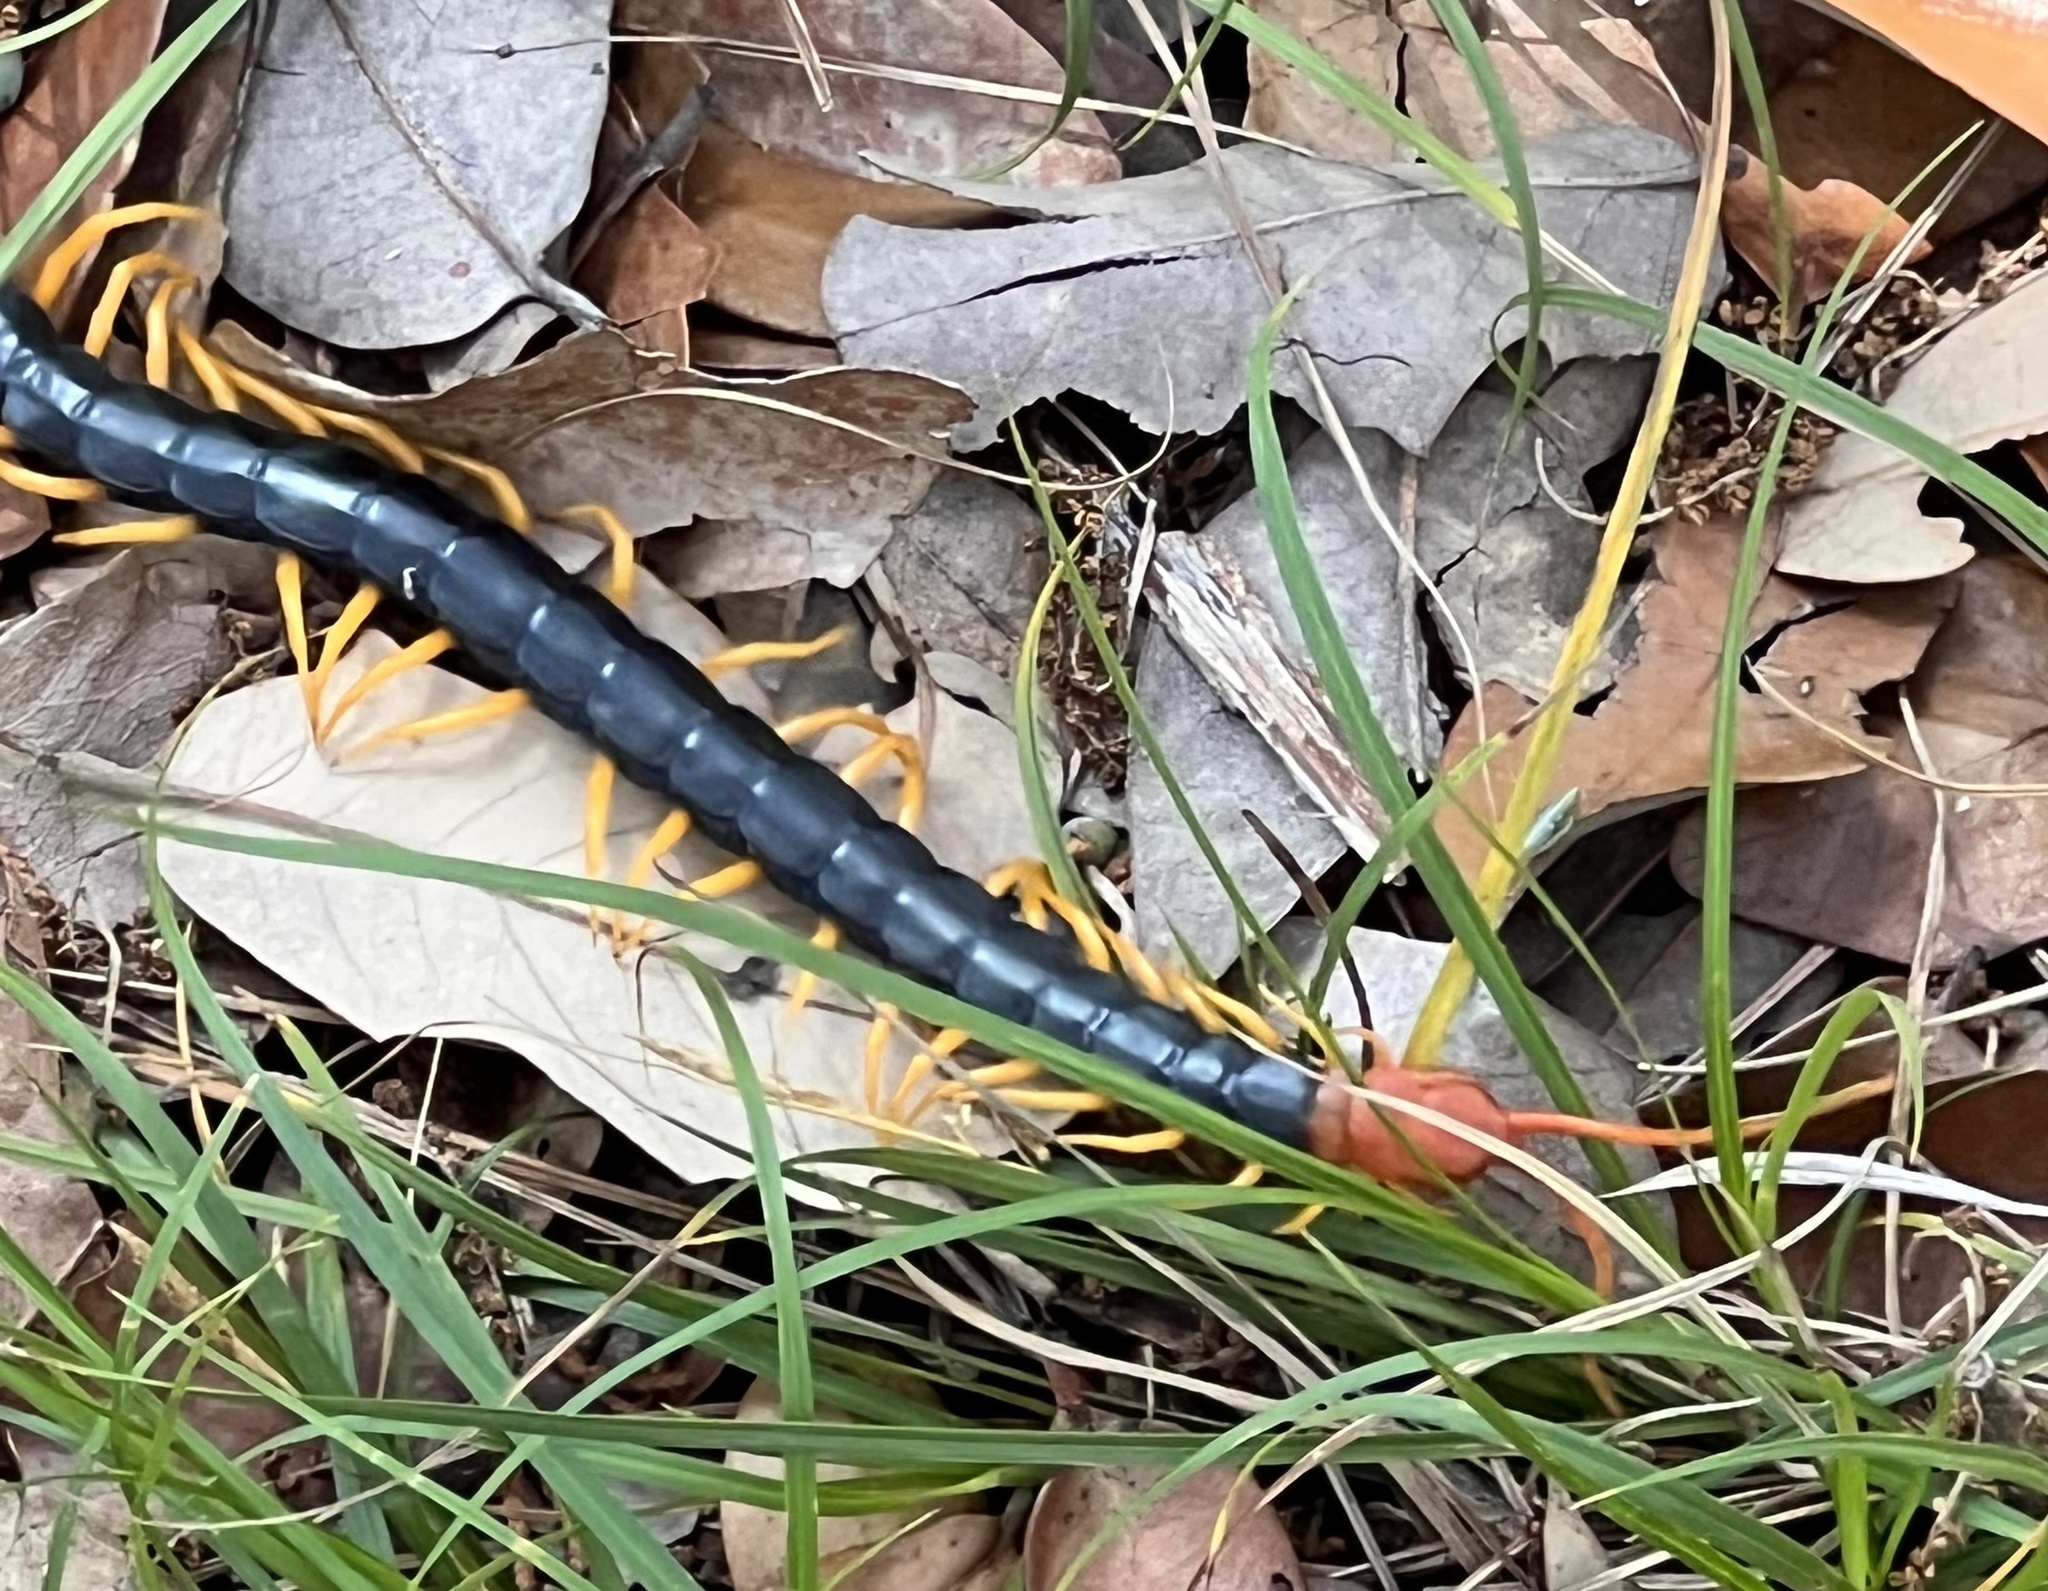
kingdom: Animalia
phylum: Arthropoda
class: Chilopoda
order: Scolopendromorpha
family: Scolopendridae
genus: Scolopendra
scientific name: Scolopendra heros
